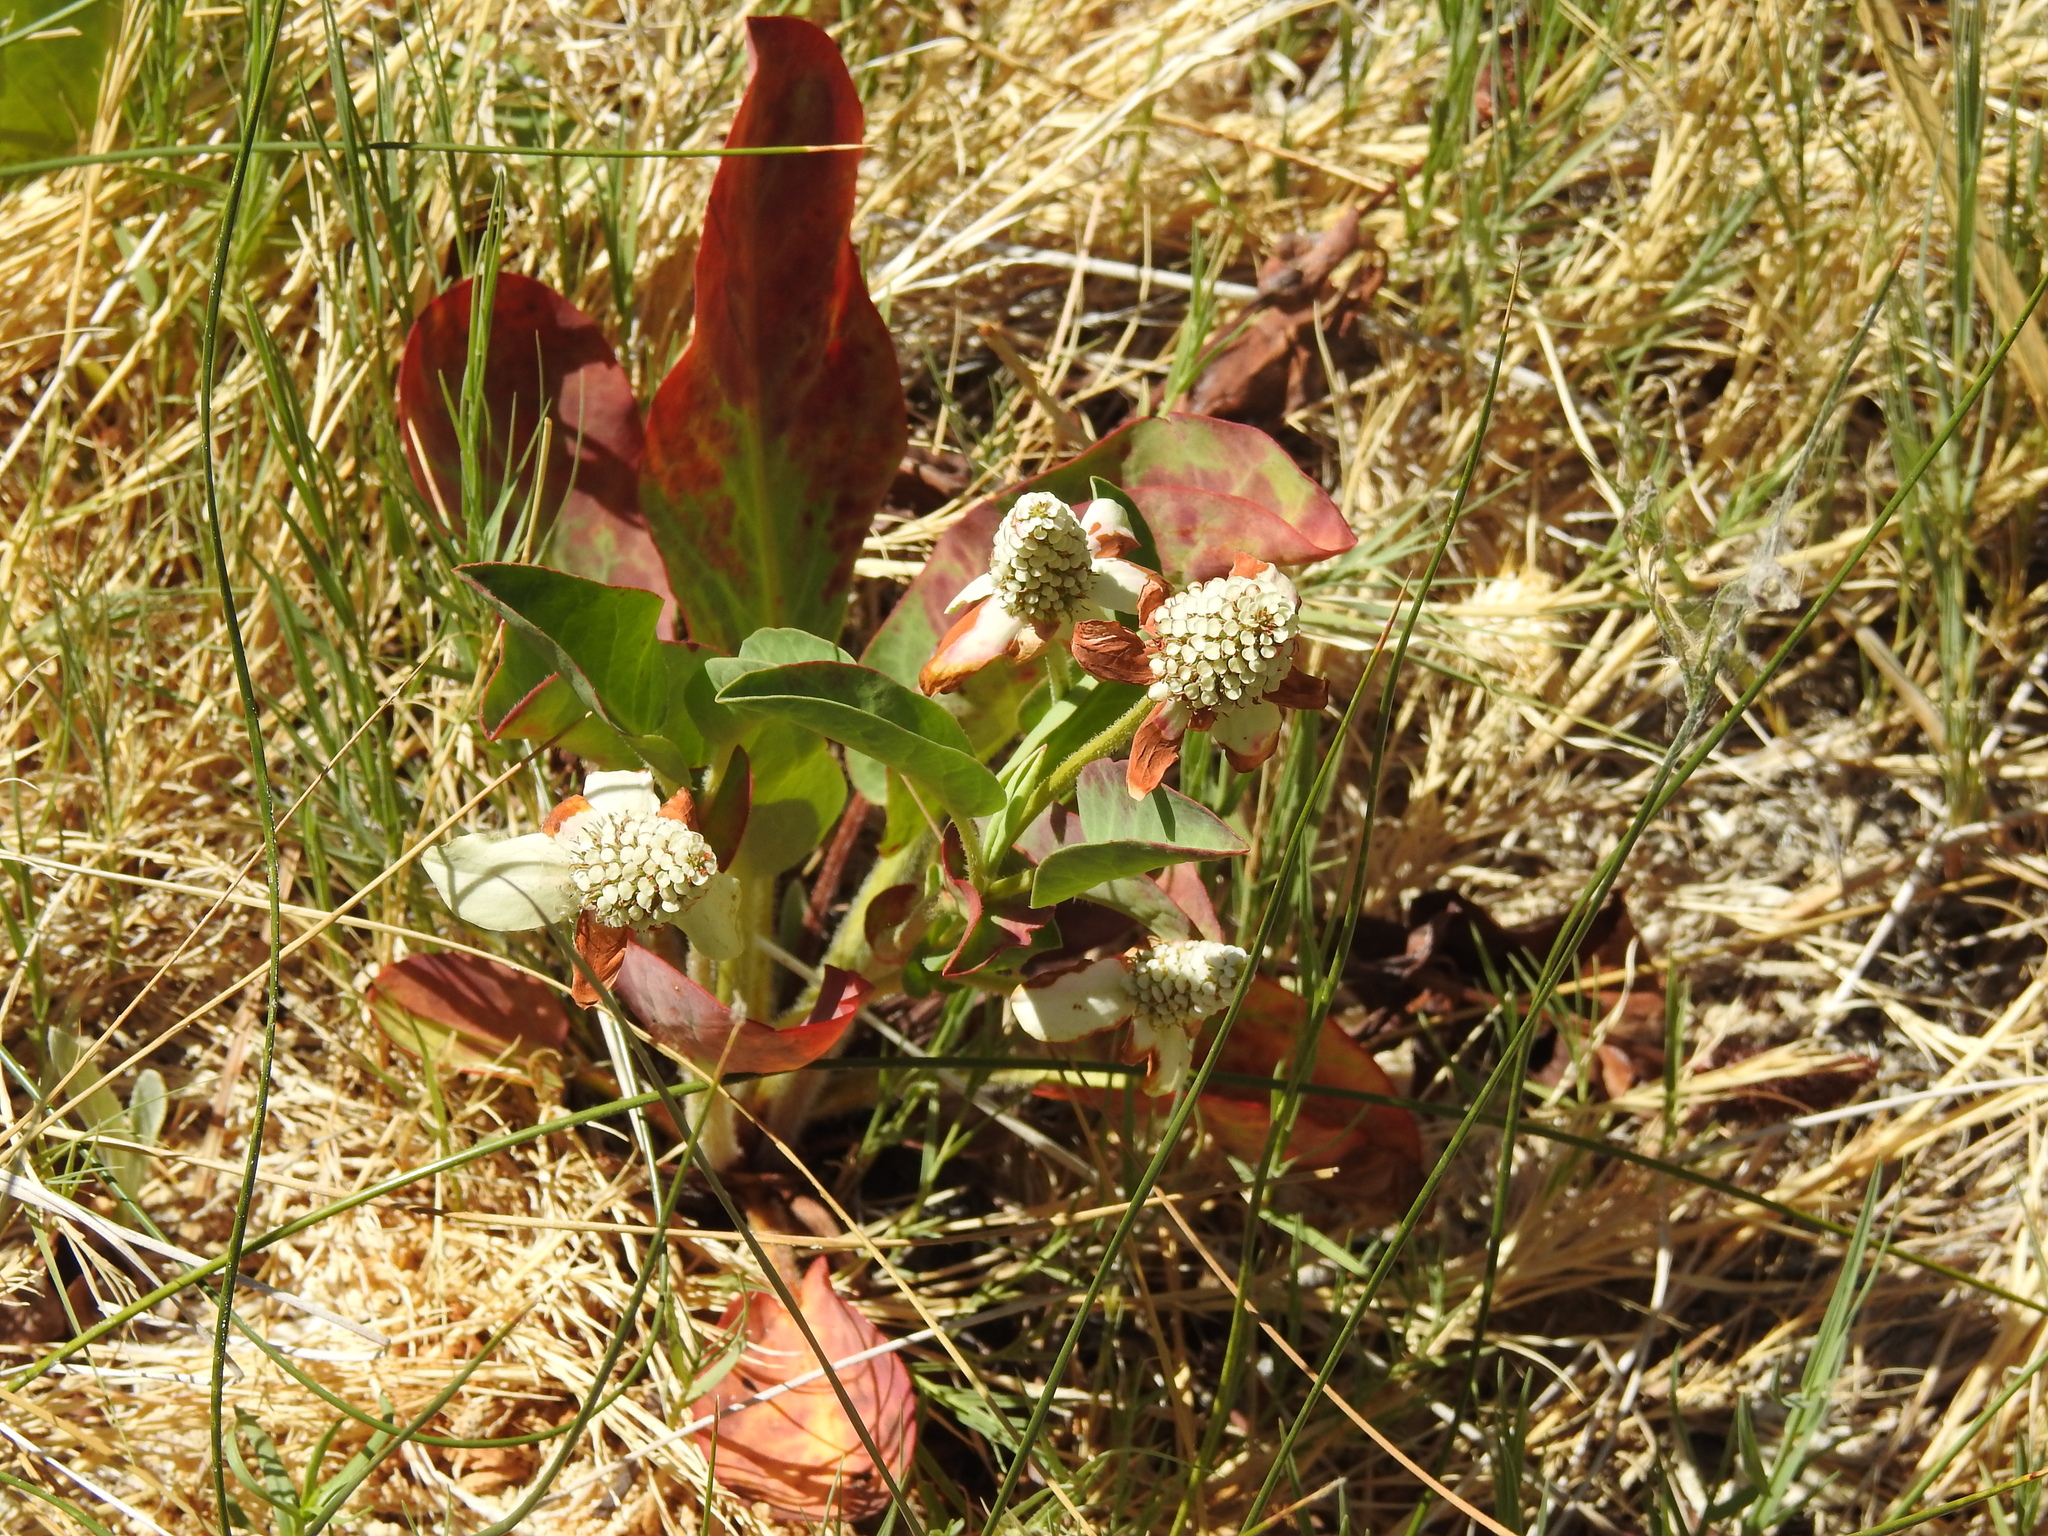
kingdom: Plantae
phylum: Tracheophyta
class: Magnoliopsida
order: Piperales
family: Saururaceae
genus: Anemopsis
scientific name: Anemopsis californica
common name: Apache-beads
